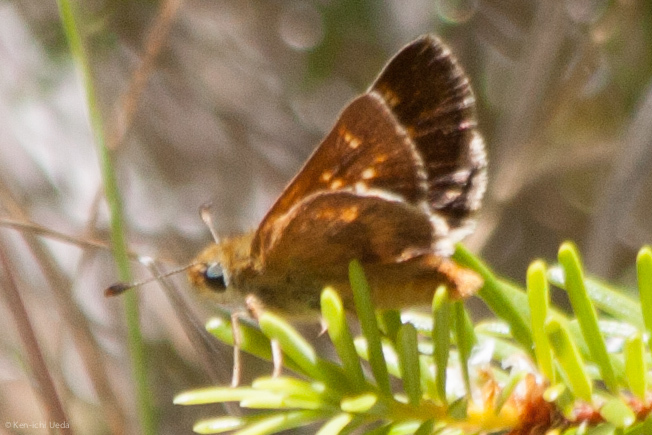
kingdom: Animalia
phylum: Arthropoda
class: Insecta
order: Lepidoptera
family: Hesperiidae
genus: Lon
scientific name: Lon melane
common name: Umber skipper
